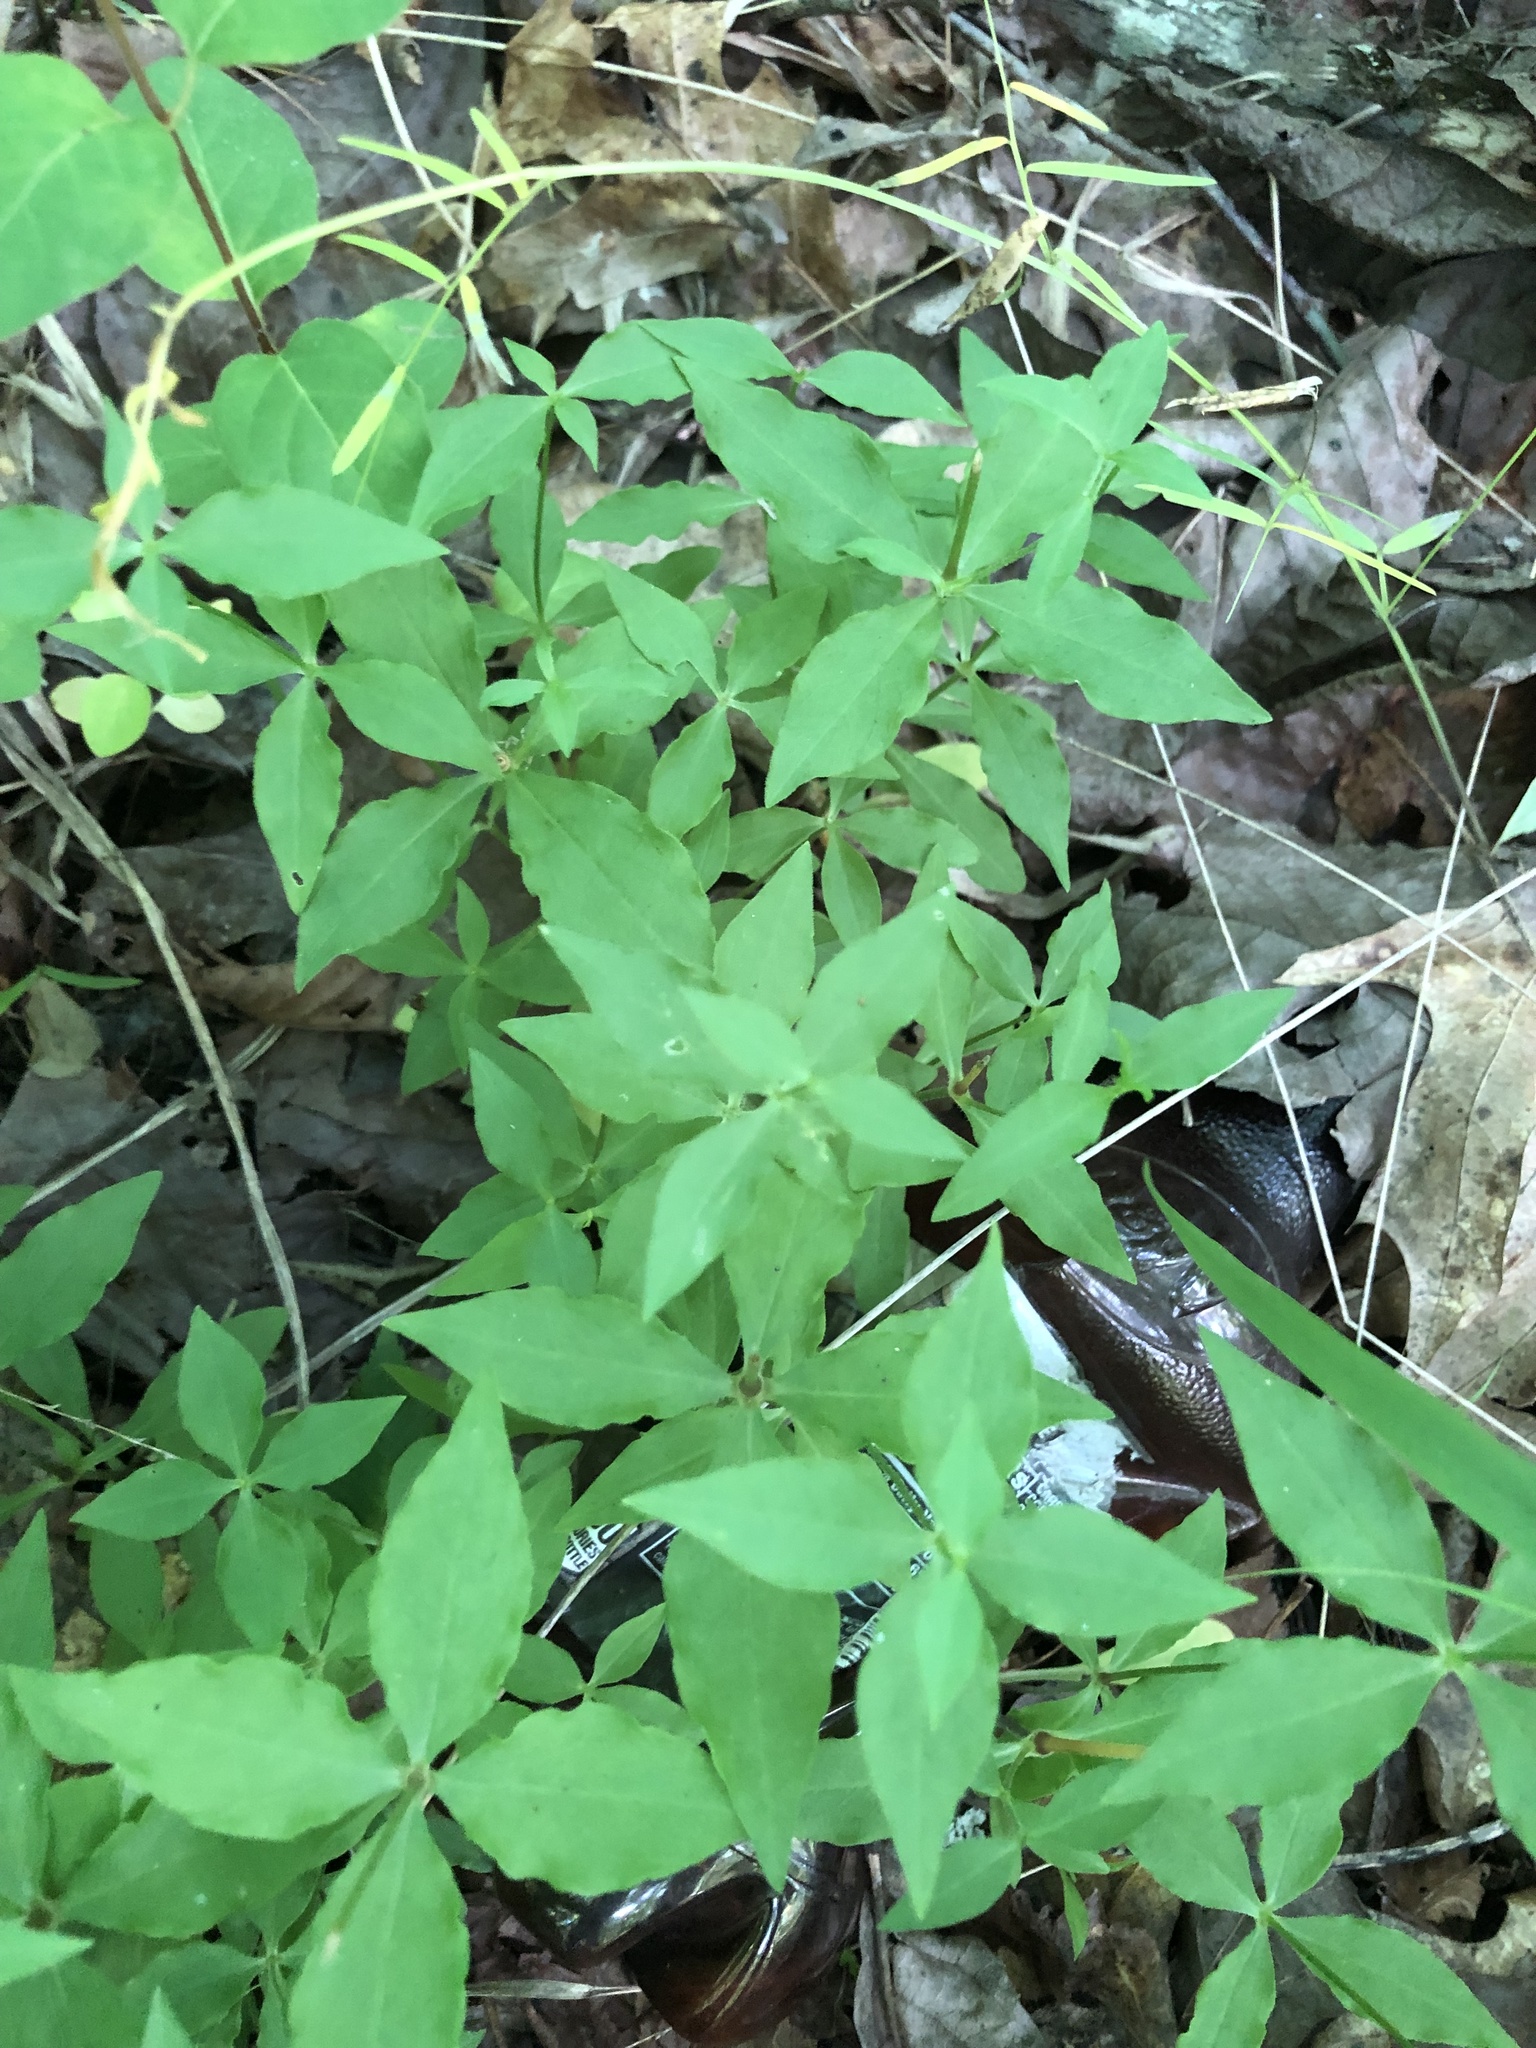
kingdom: Plantae
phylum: Tracheophyta
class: Magnoliopsida
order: Caryophyllales
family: Caryophyllaceae
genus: Silene
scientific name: Silene stellata
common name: Starry campion
